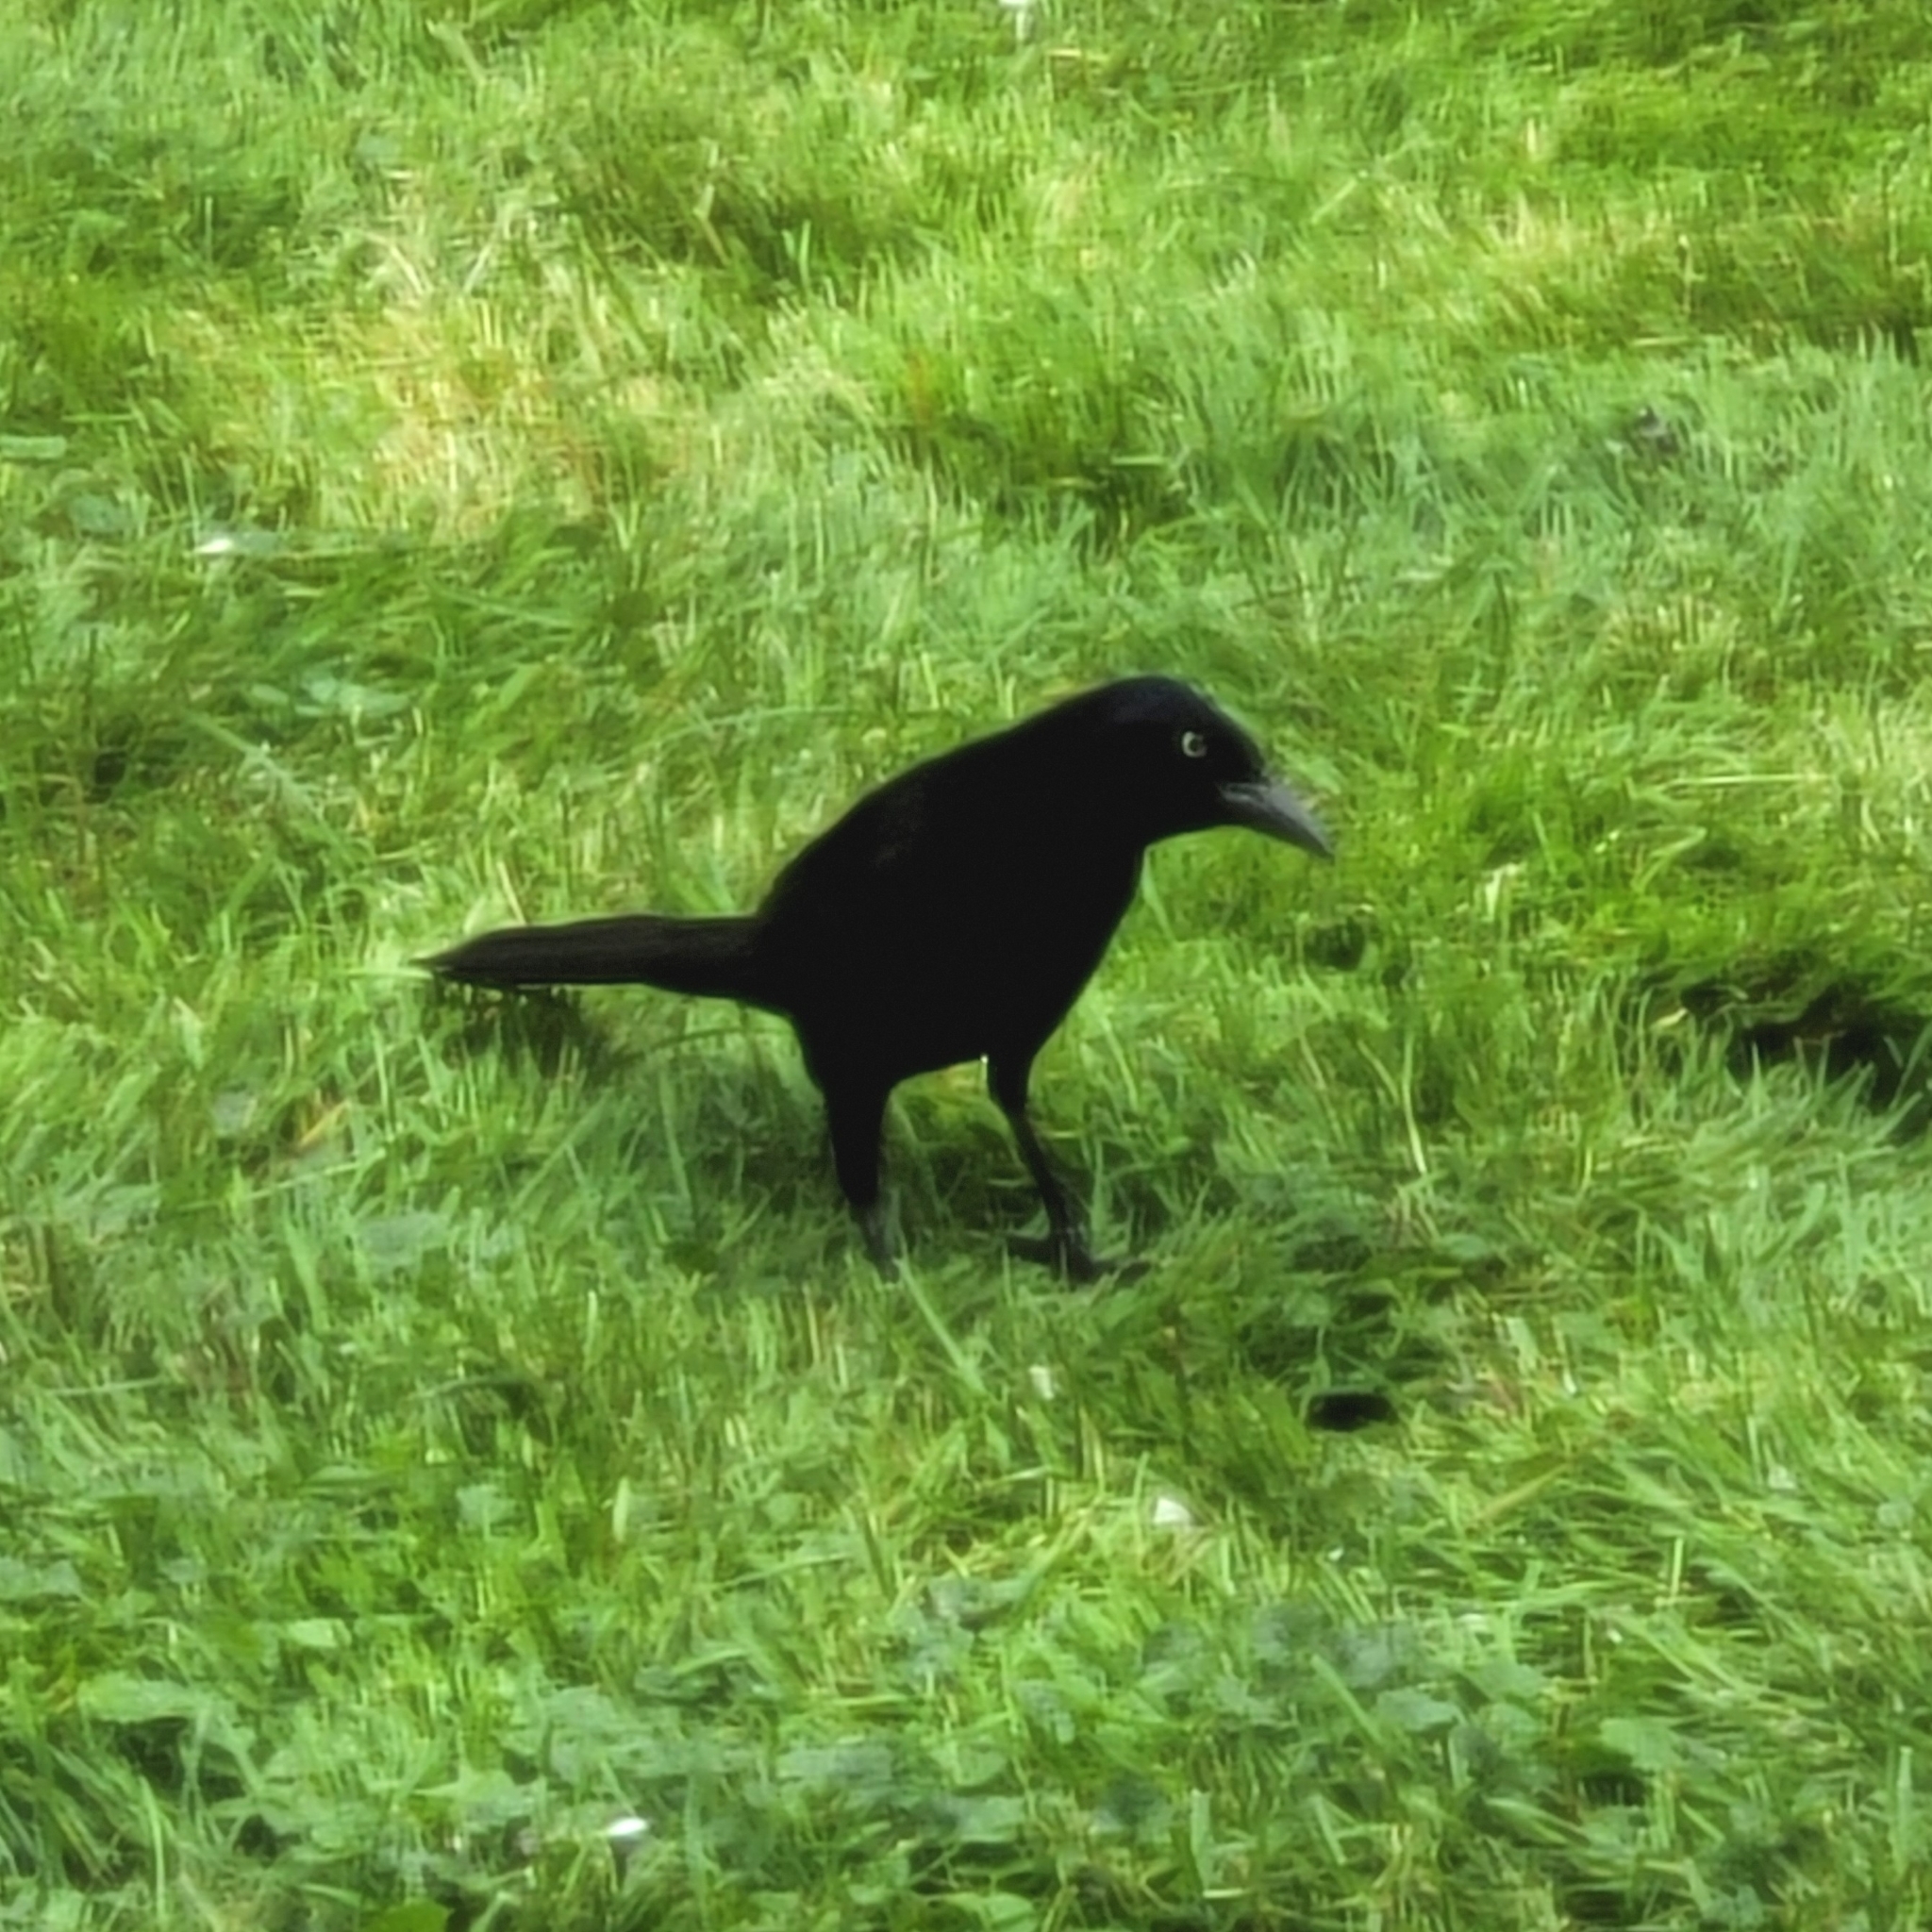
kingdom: Animalia
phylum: Chordata
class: Aves
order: Passeriformes
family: Icteridae
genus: Quiscalus
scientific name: Quiscalus quiscula
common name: Common grackle
